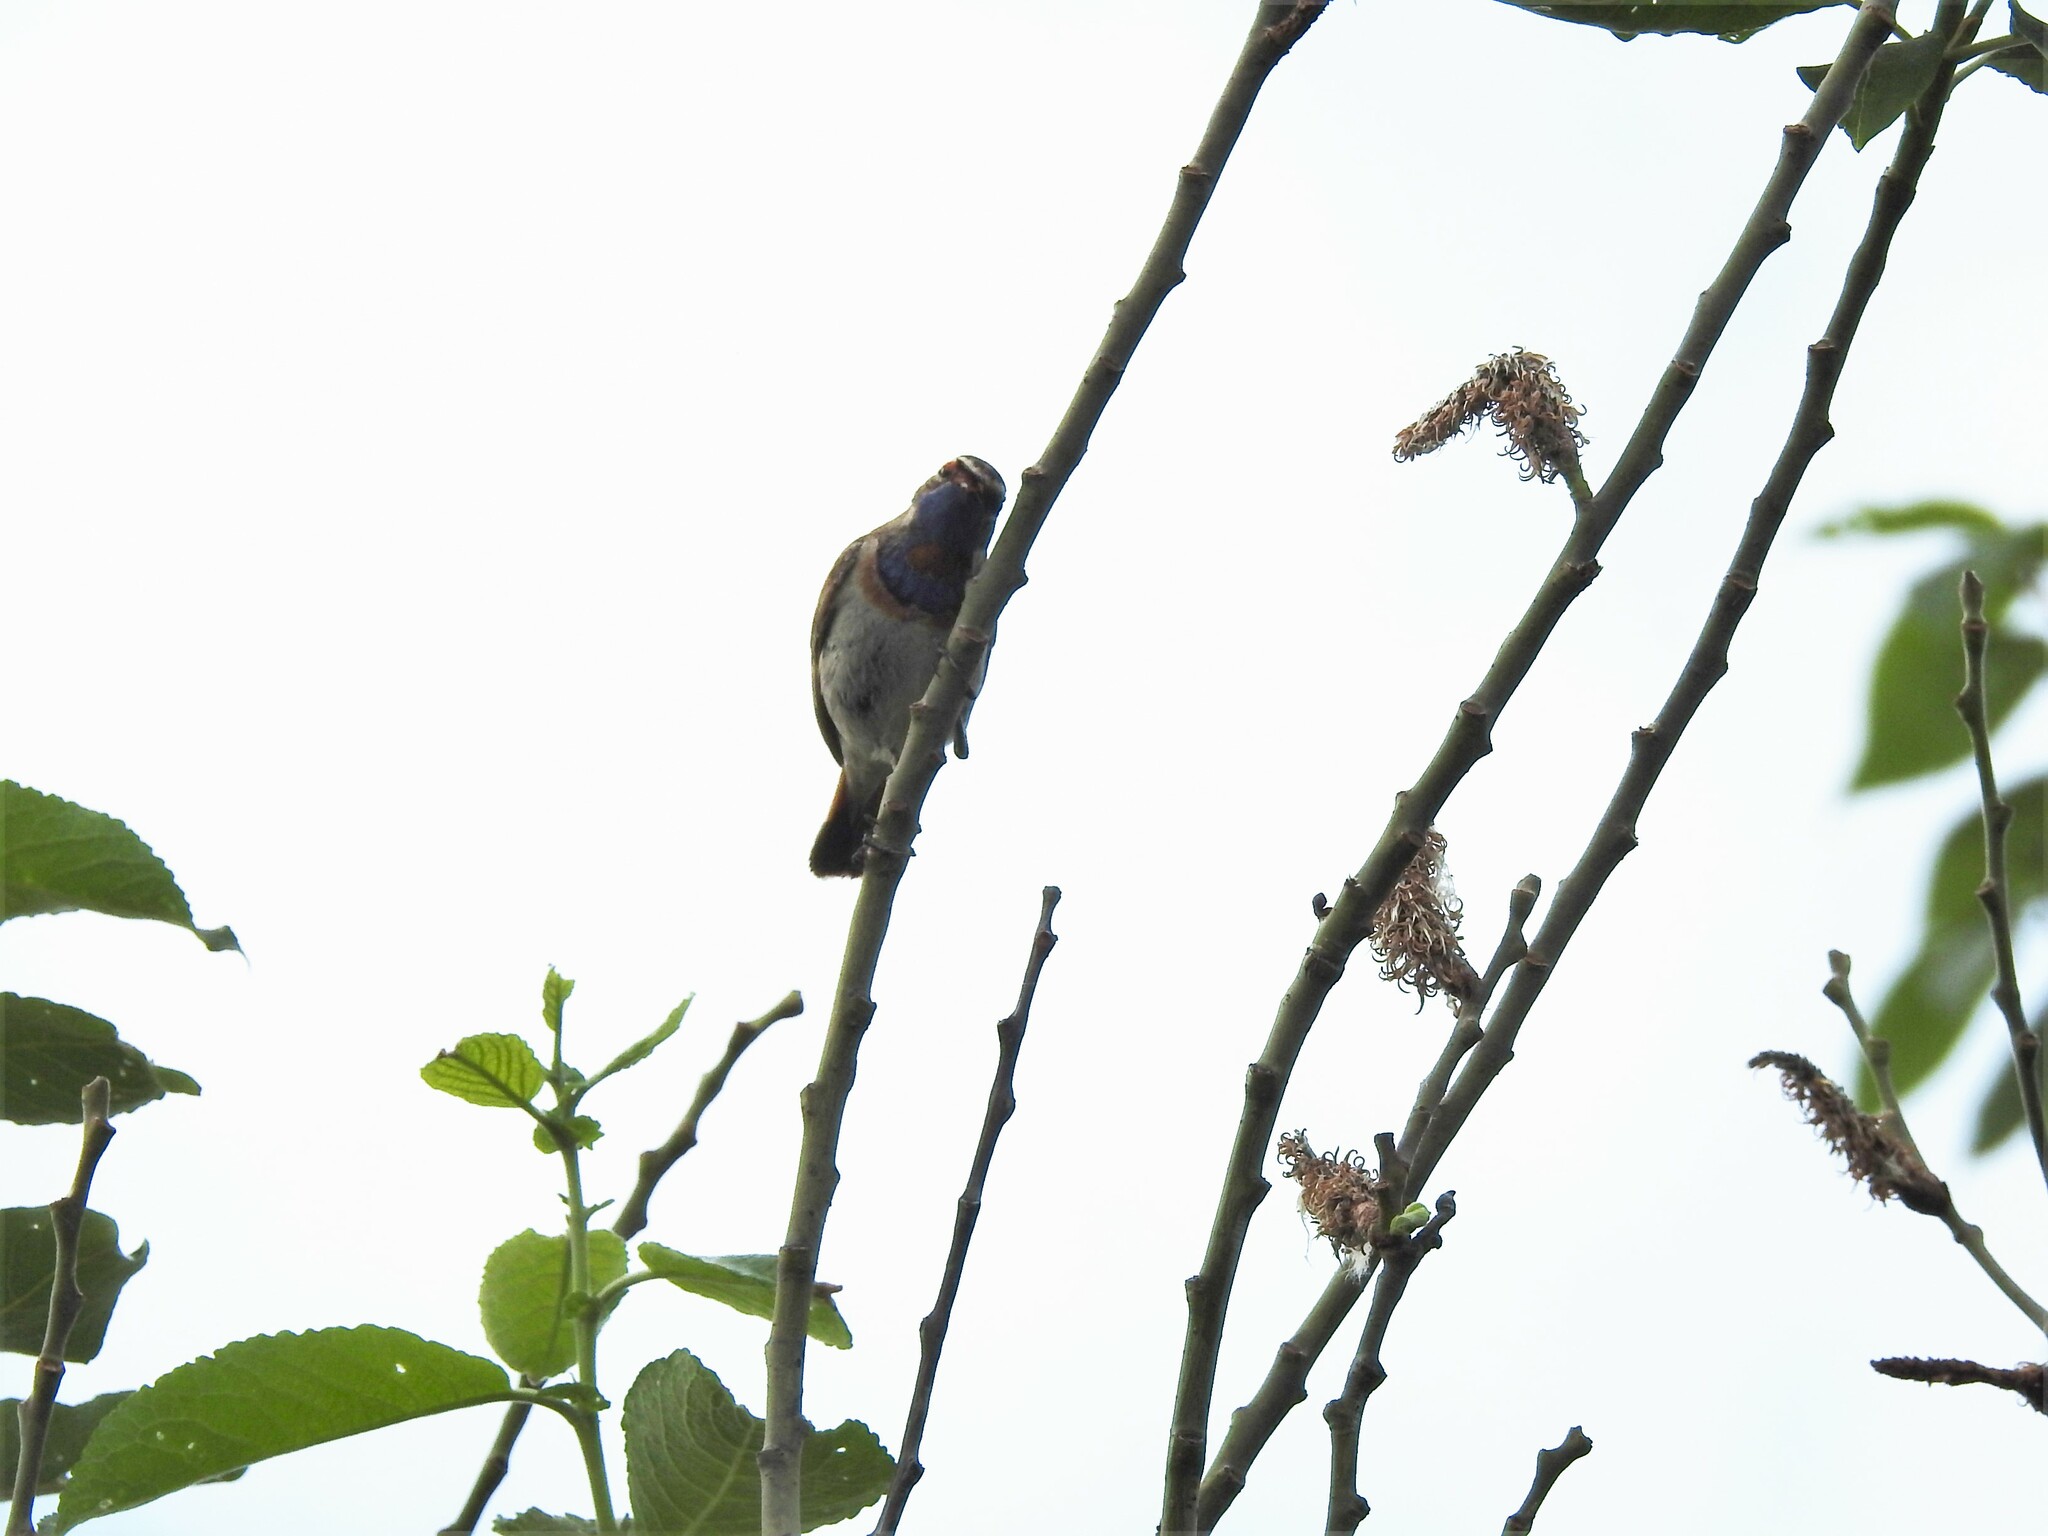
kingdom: Animalia
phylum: Chordata
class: Aves
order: Passeriformes
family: Muscicapidae
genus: Luscinia
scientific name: Luscinia svecica
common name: Bluethroat
